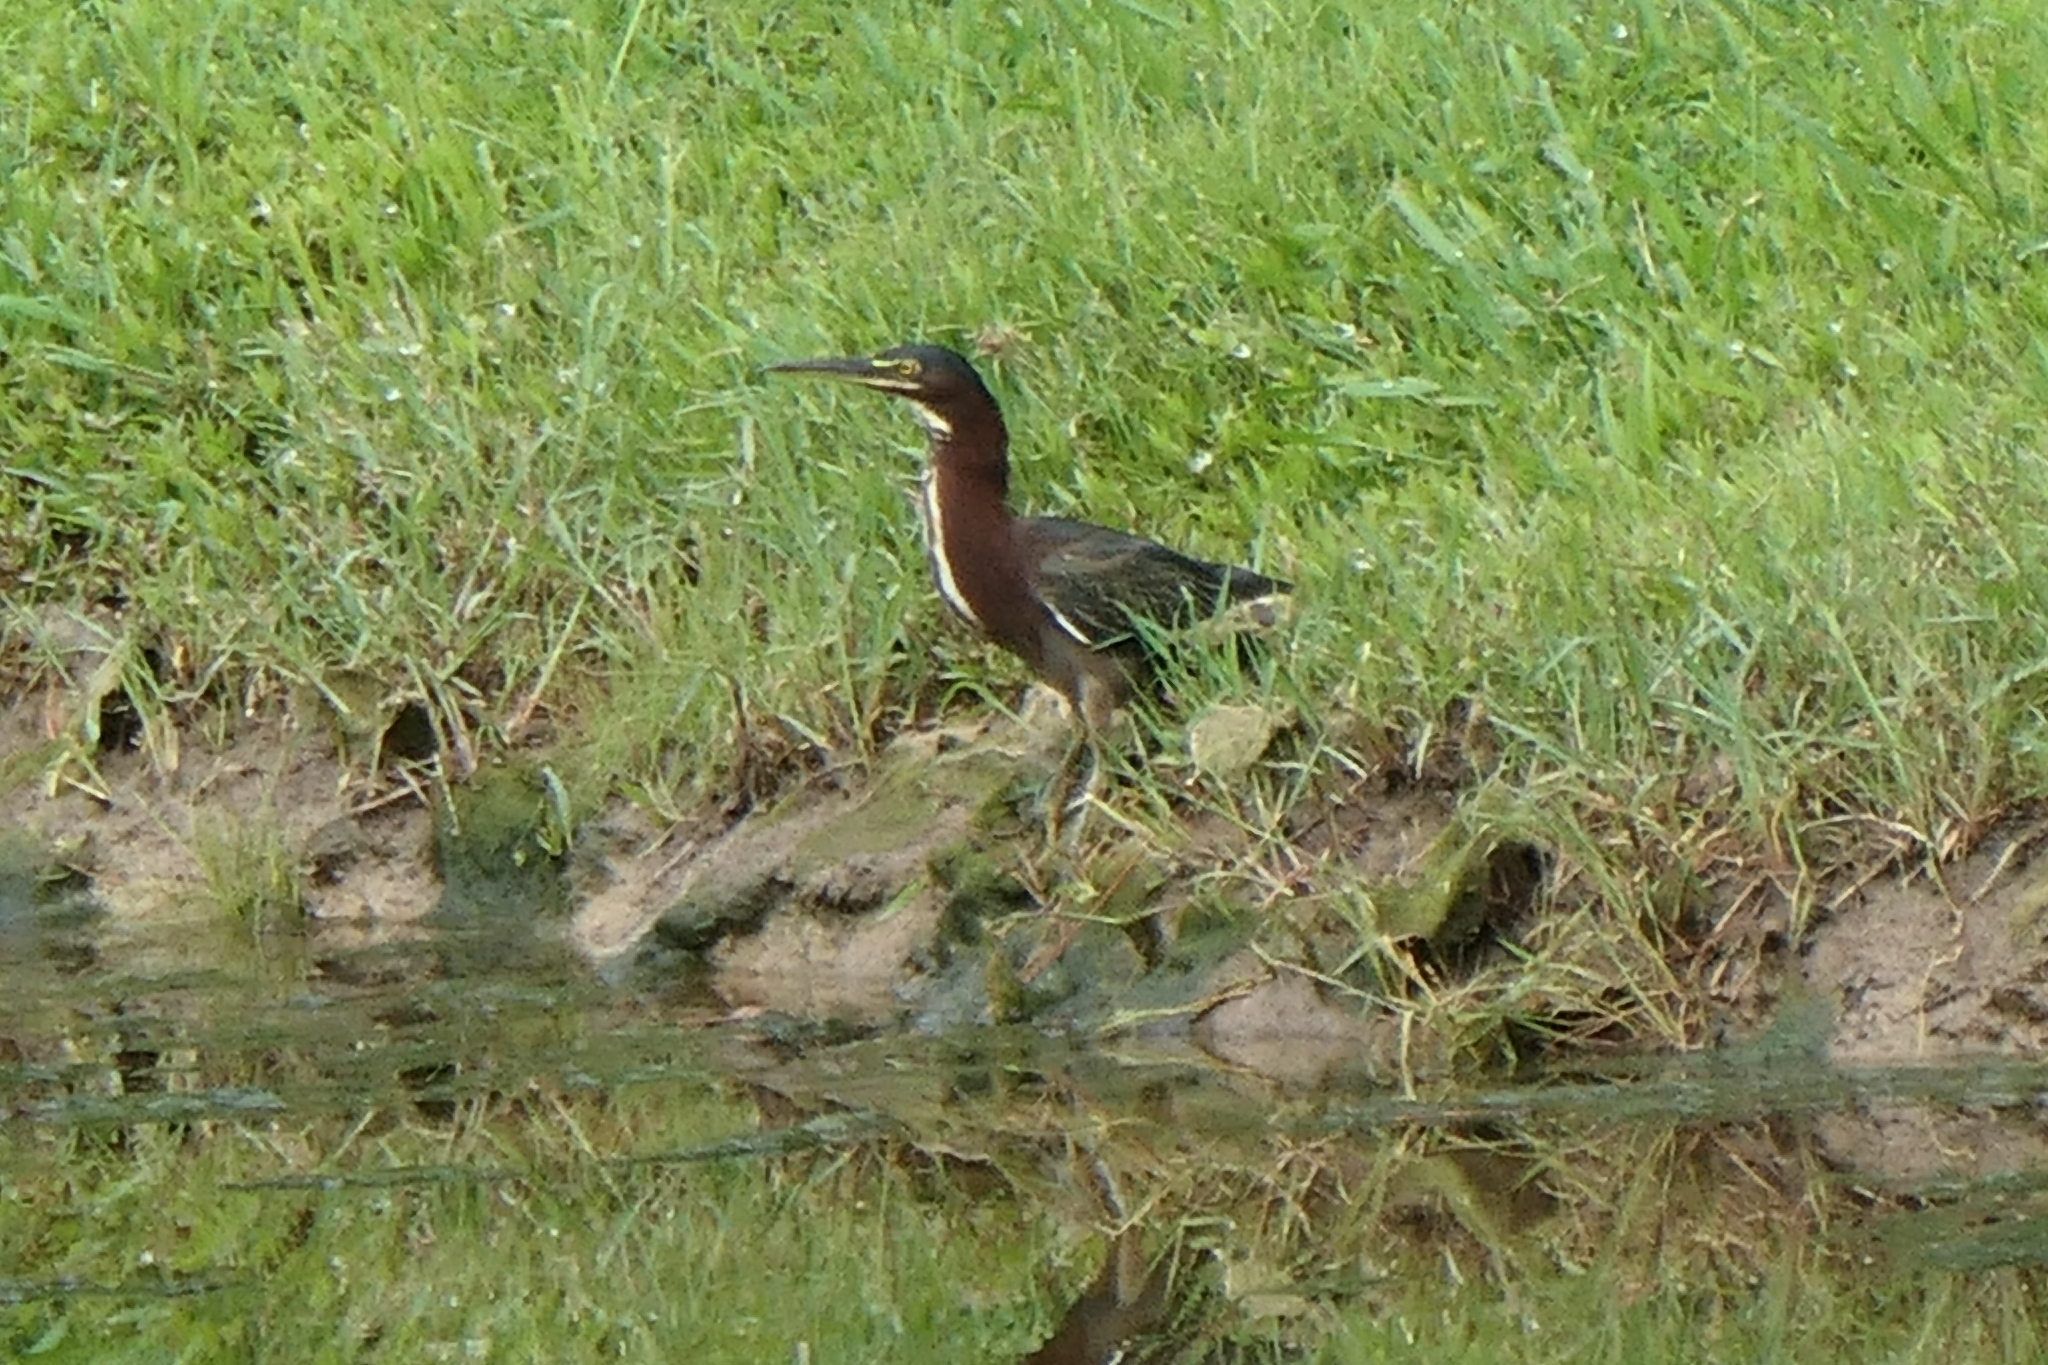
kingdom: Animalia
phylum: Chordata
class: Aves
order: Pelecaniformes
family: Ardeidae
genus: Butorides
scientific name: Butorides virescens
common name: Green heron
